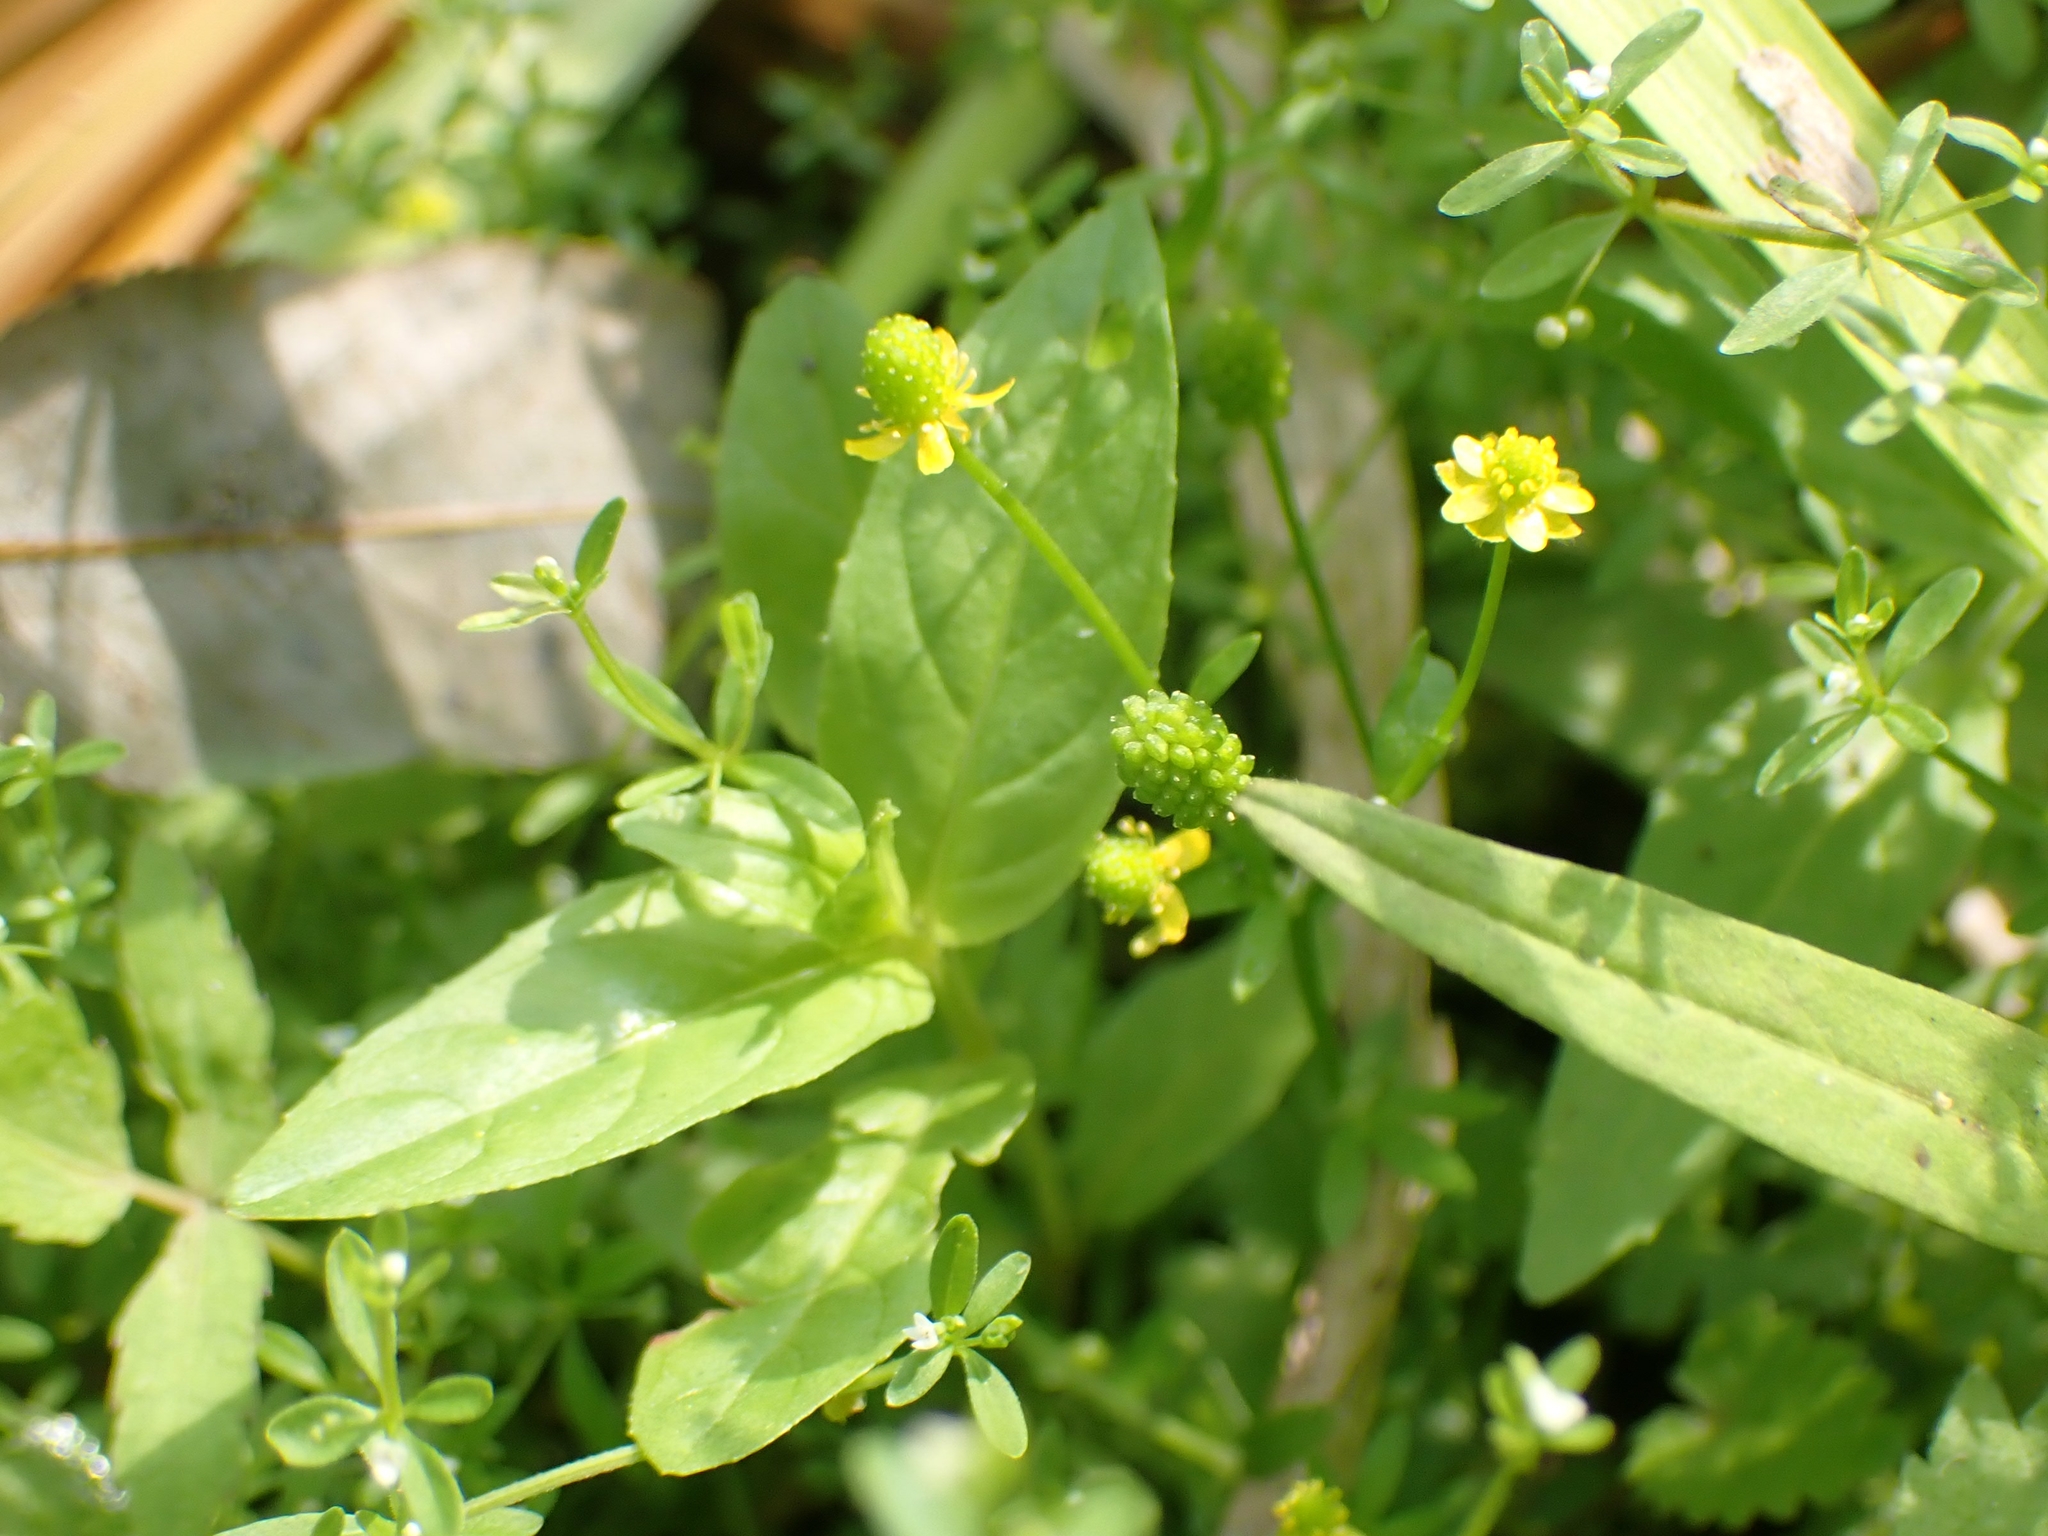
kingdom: Plantae
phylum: Tracheophyta
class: Magnoliopsida
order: Ranunculales
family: Ranunculaceae
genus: Ranunculus
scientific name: Ranunculus abortivus
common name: Early wood buttercup
